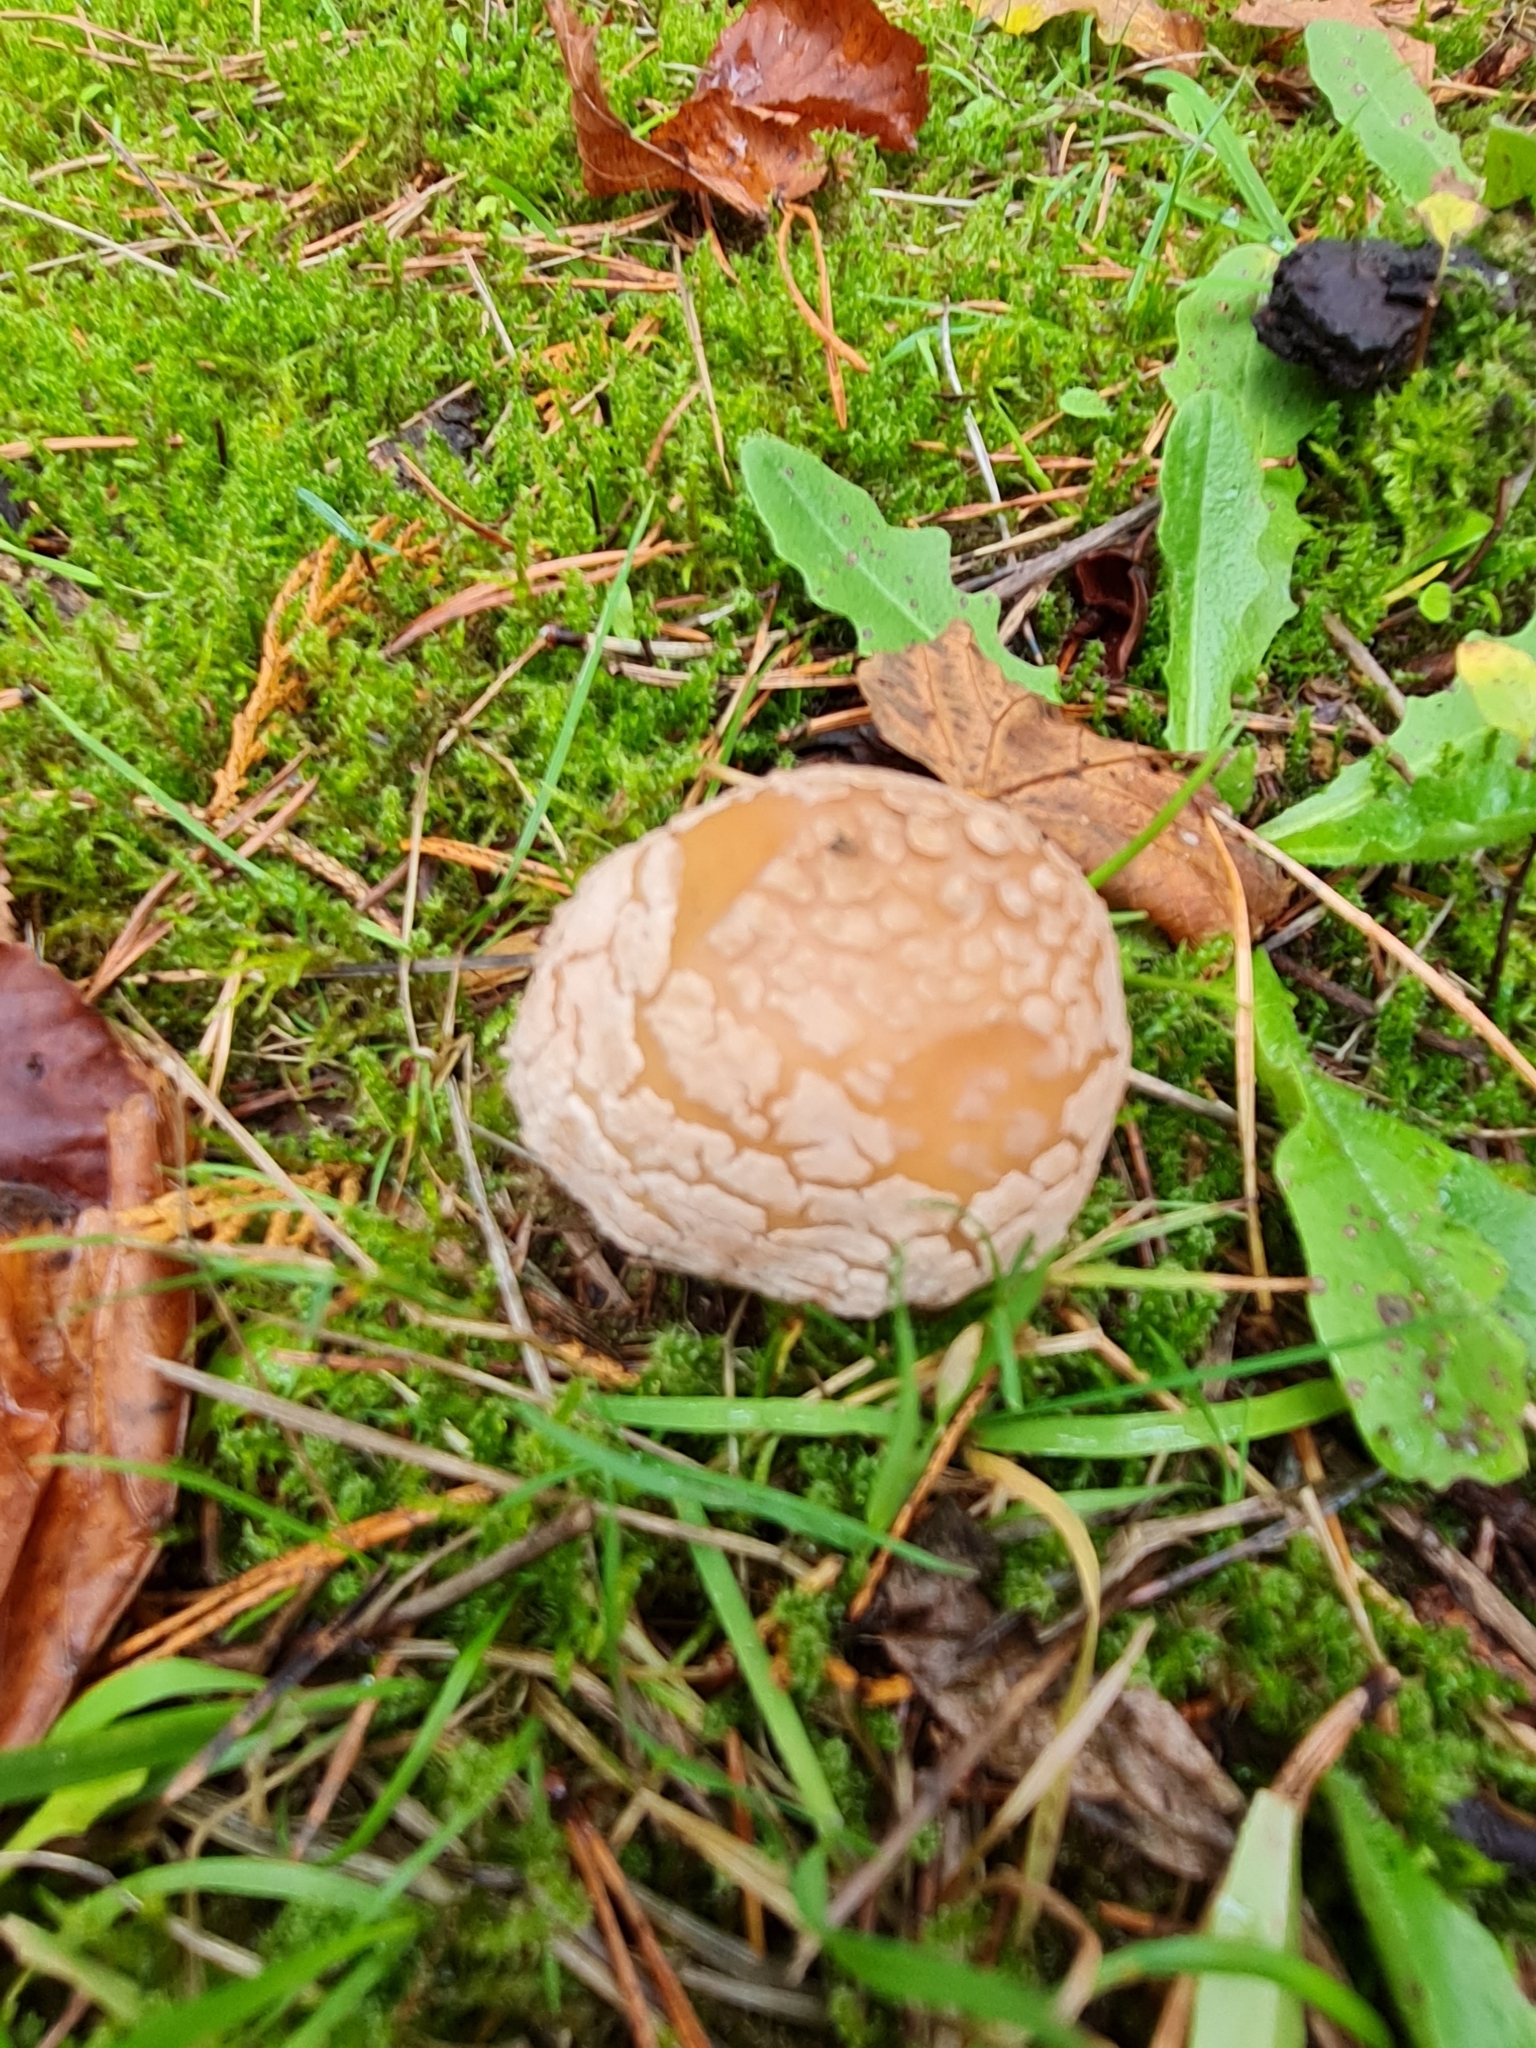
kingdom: Fungi
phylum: Basidiomycota
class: Agaricomycetes
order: Agaricales
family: Amanitaceae
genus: Amanita
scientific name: Amanita rubescens
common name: Blusher
